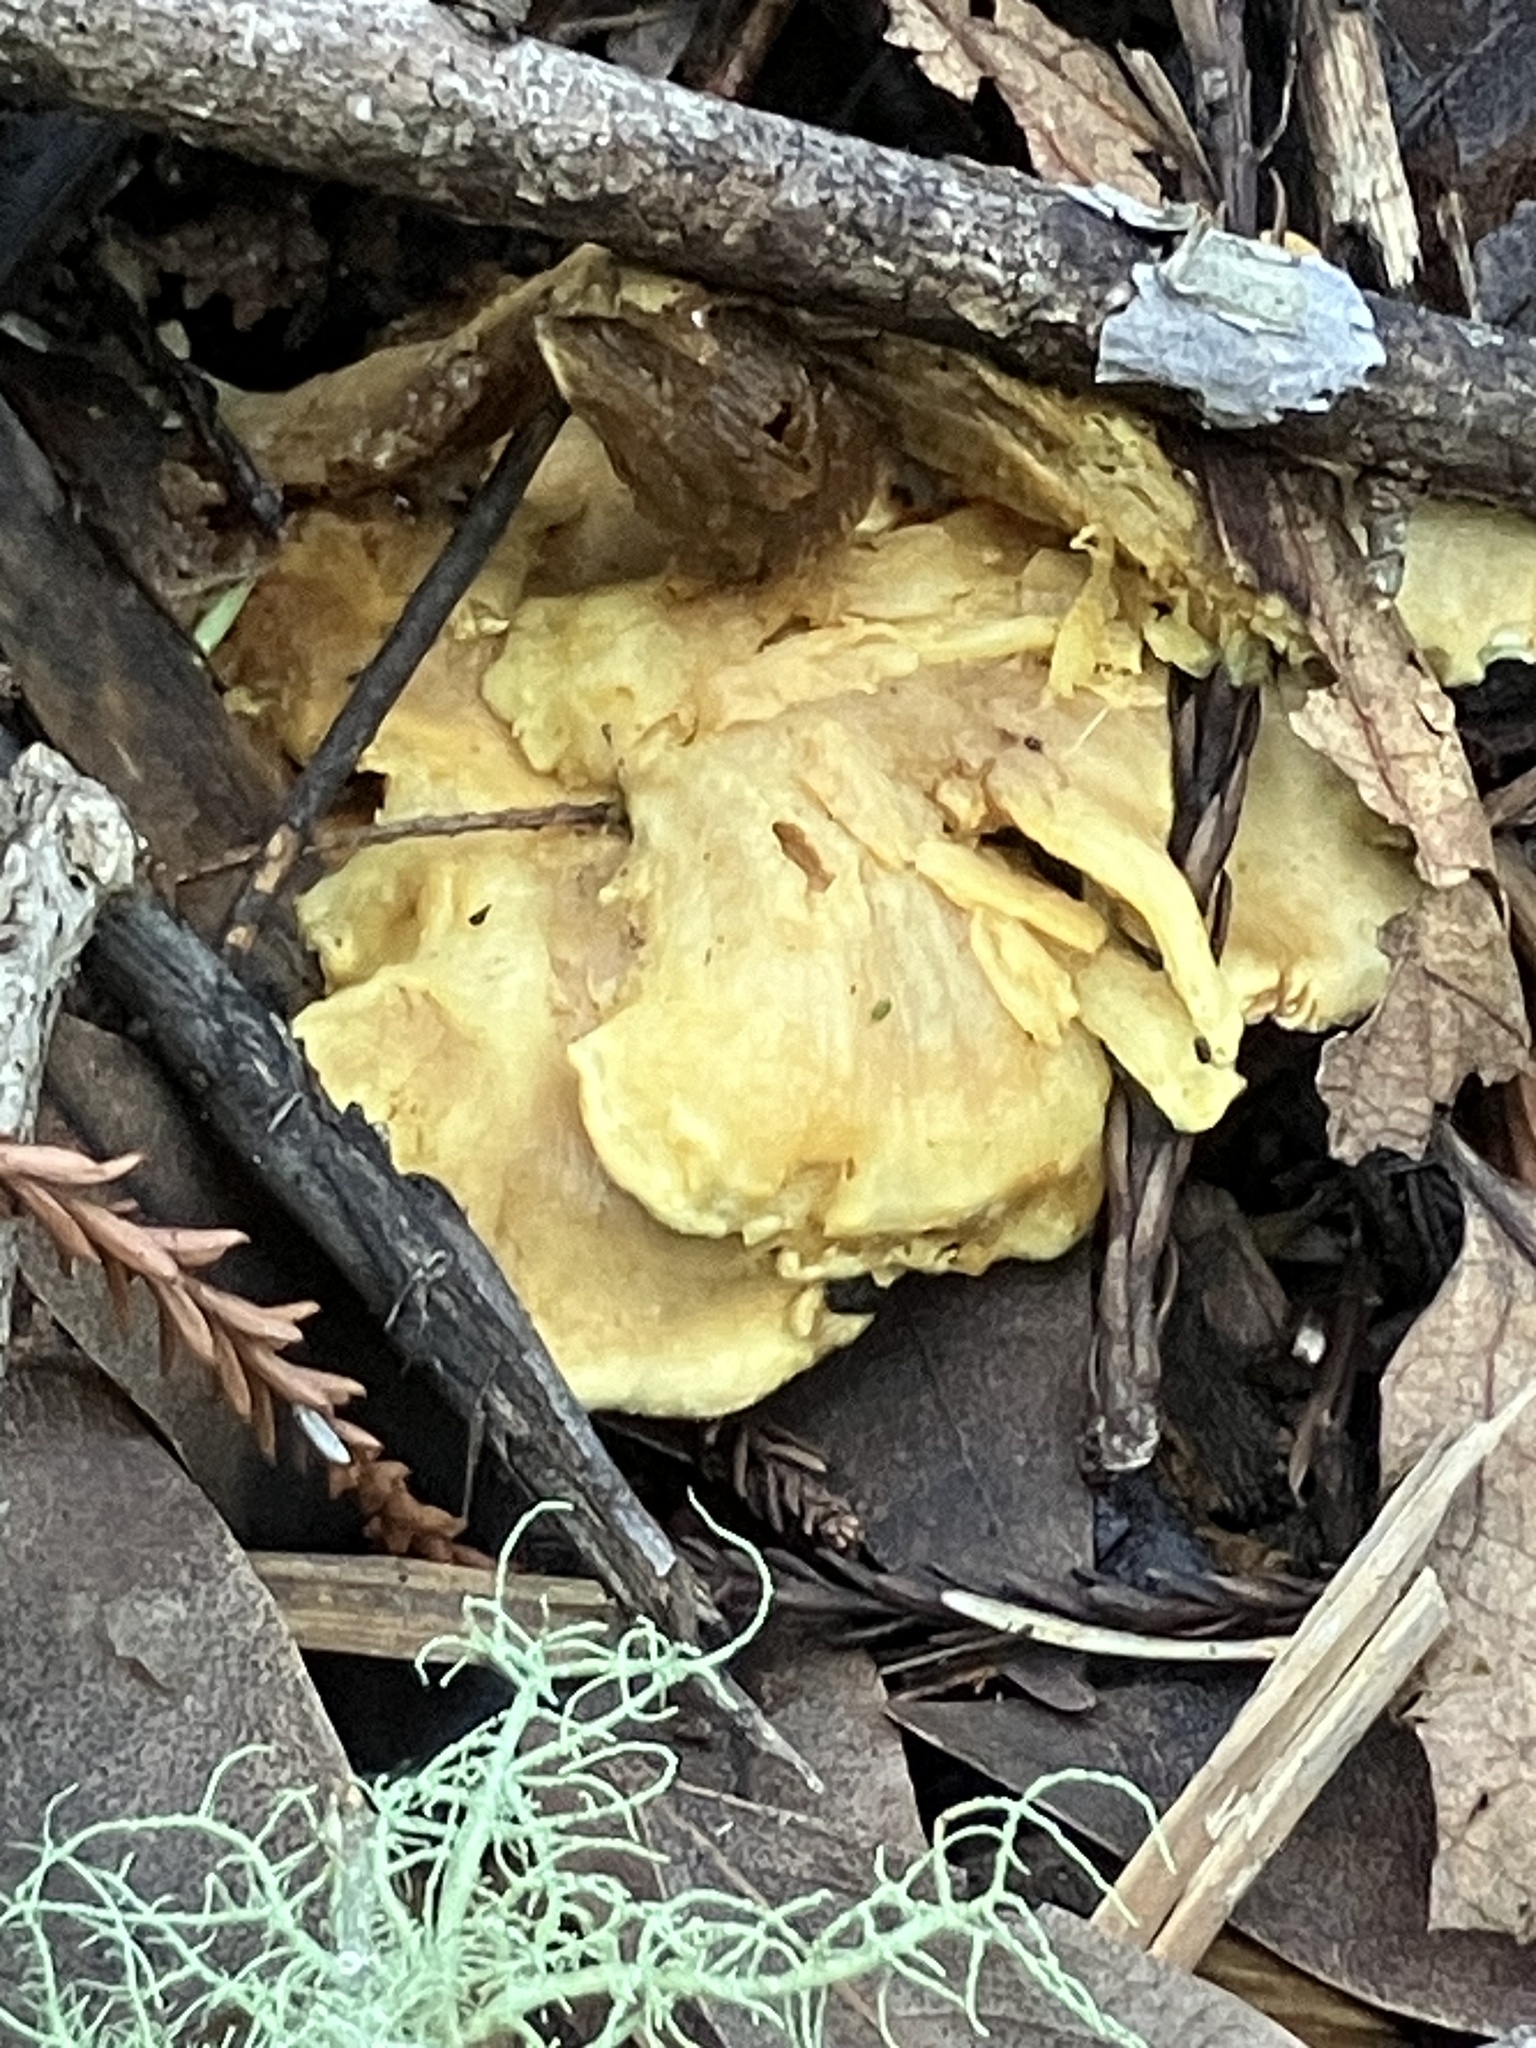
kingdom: Fungi
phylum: Basidiomycota
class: Agaricomycetes
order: Boletales
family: Tapinellaceae
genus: Tapinella
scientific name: Tapinella panuoides
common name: Oyster rollrim
